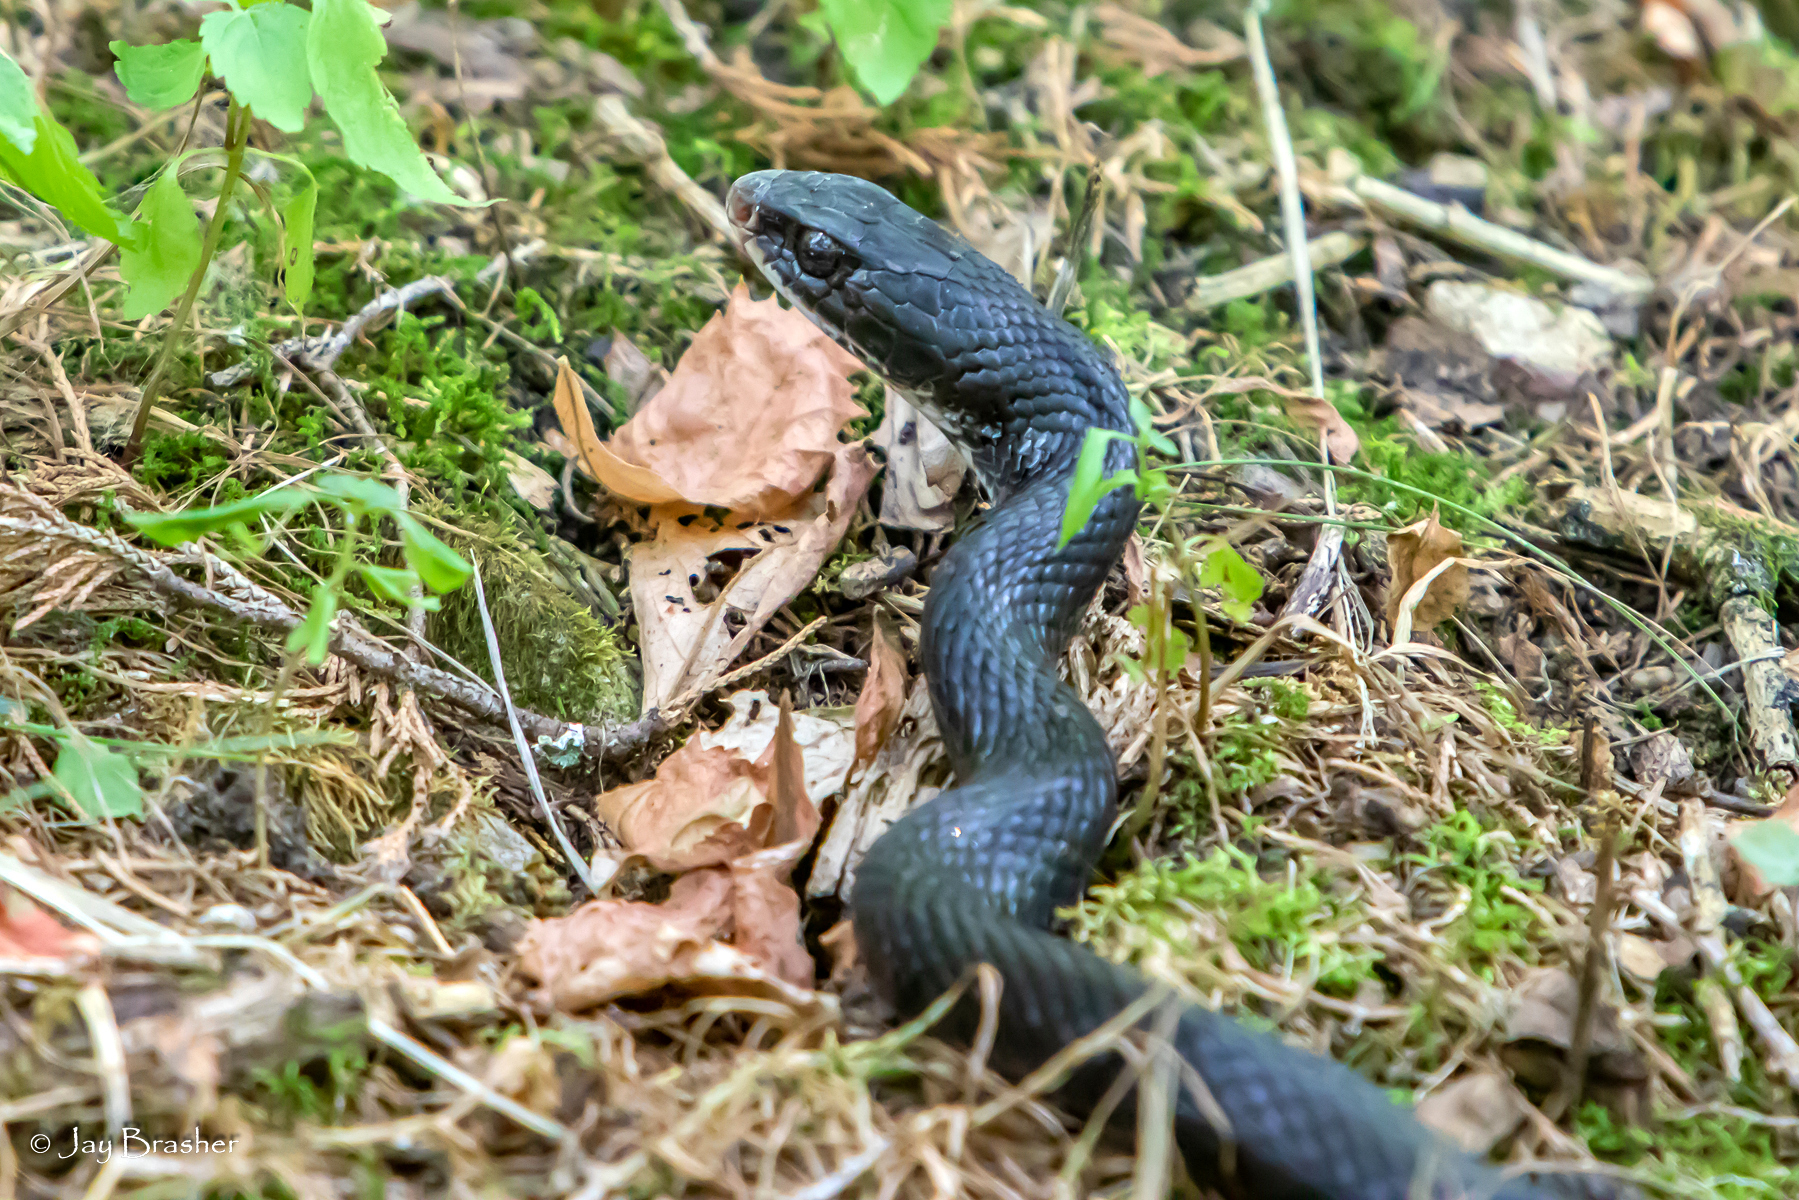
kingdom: Animalia
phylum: Chordata
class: Squamata
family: Colubridae
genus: Coluber
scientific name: Coluber constrictor
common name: Eastern racer
